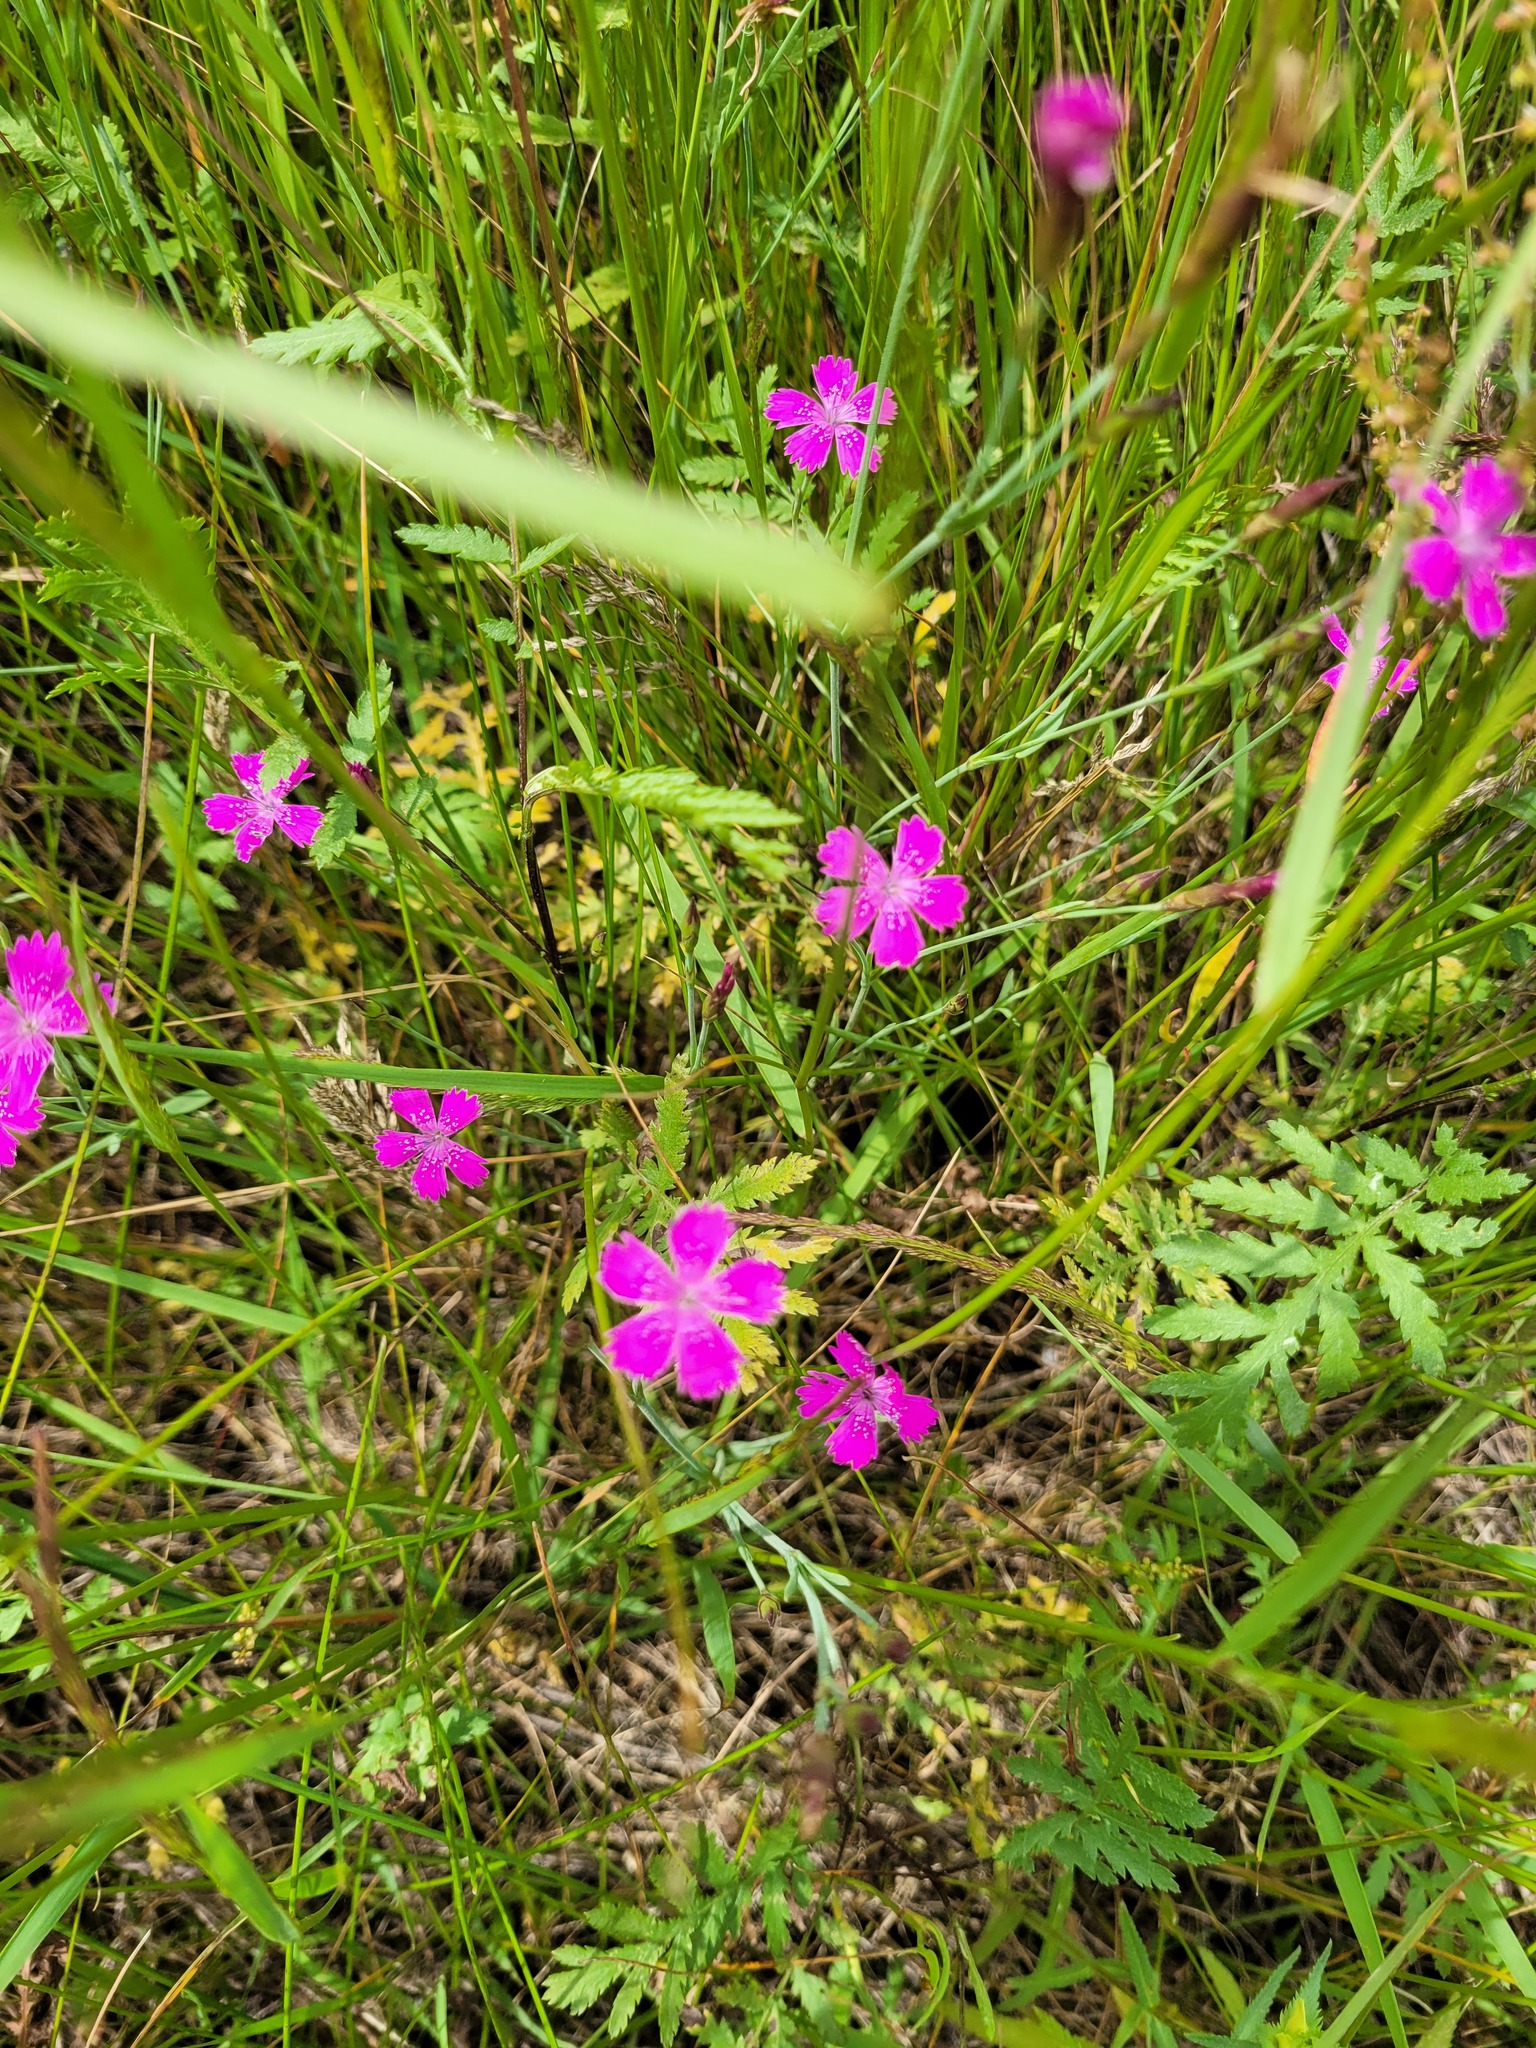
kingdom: Plantae
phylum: Tracheophyta
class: Magnoliopsida
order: Caryophyllales
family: Caryophyllaceae
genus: Dianthus
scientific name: Dianthus deltoides
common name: Maiden pink
